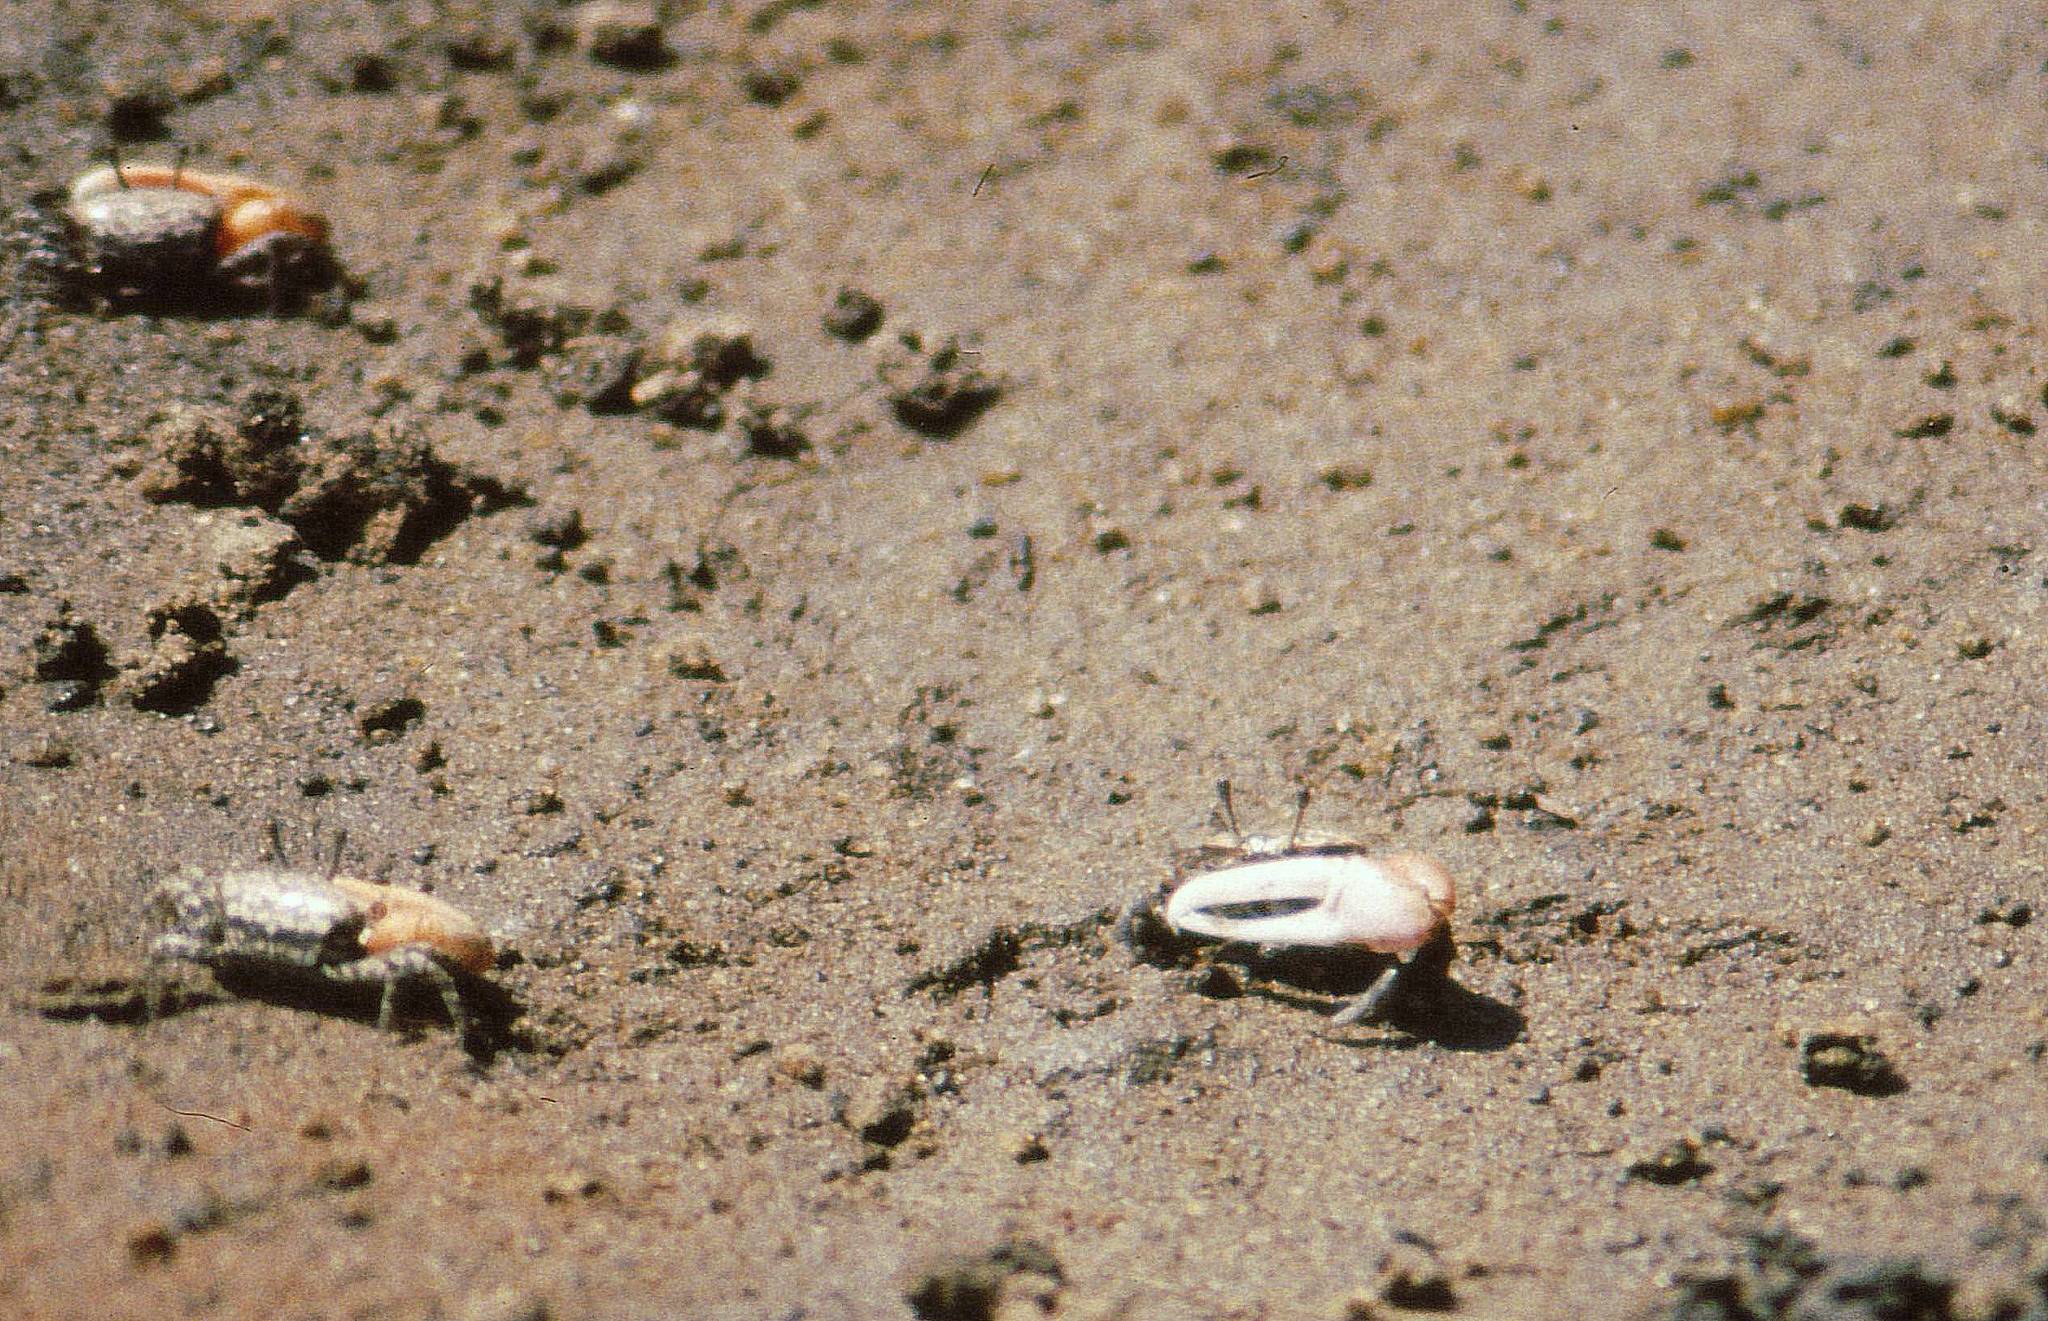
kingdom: Animalia
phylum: Arthropoda
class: Malacostraca
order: Decapoda
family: Ocypodidae
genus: Austruca
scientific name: Austruca occidentalis
